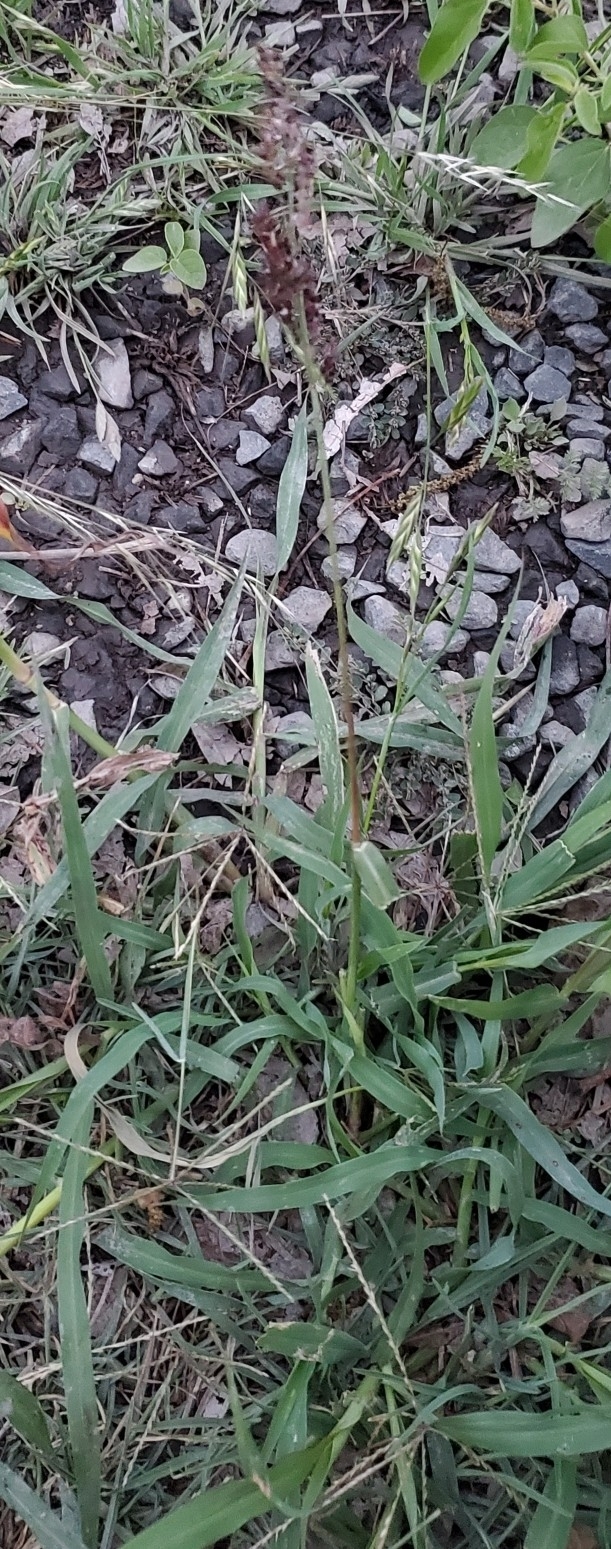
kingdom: Plantae
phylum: Tracheophyta
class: Liliopsida
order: Poales
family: Poaceae
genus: Sorghum
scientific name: Sorghum halepense
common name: Johnson-grass
